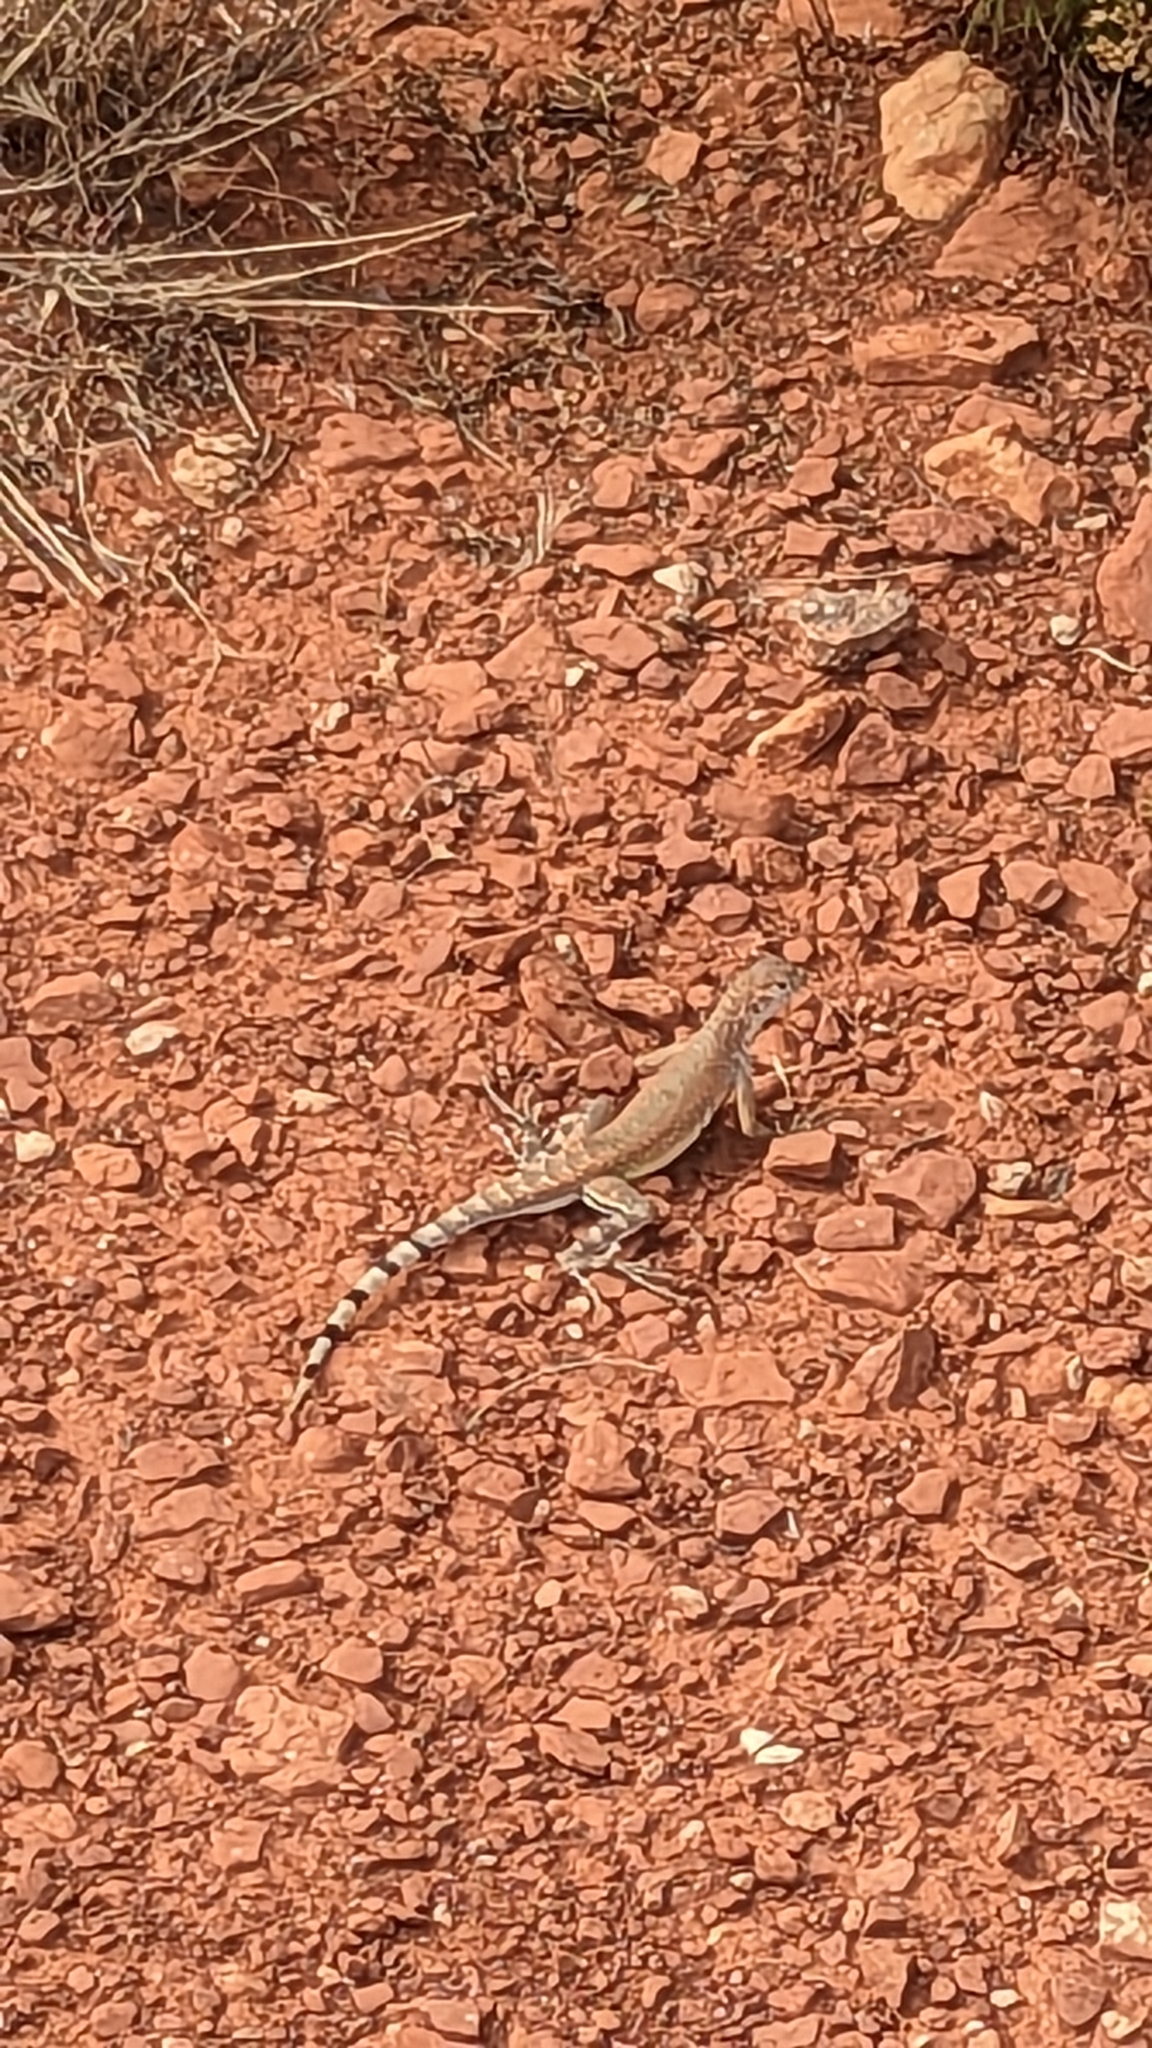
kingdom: Animalia
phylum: Chordata
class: Squamata
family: Phrynosomatidae
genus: Callisaurus
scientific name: Callisaurus draconoides
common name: Zebra-tailed lizard
